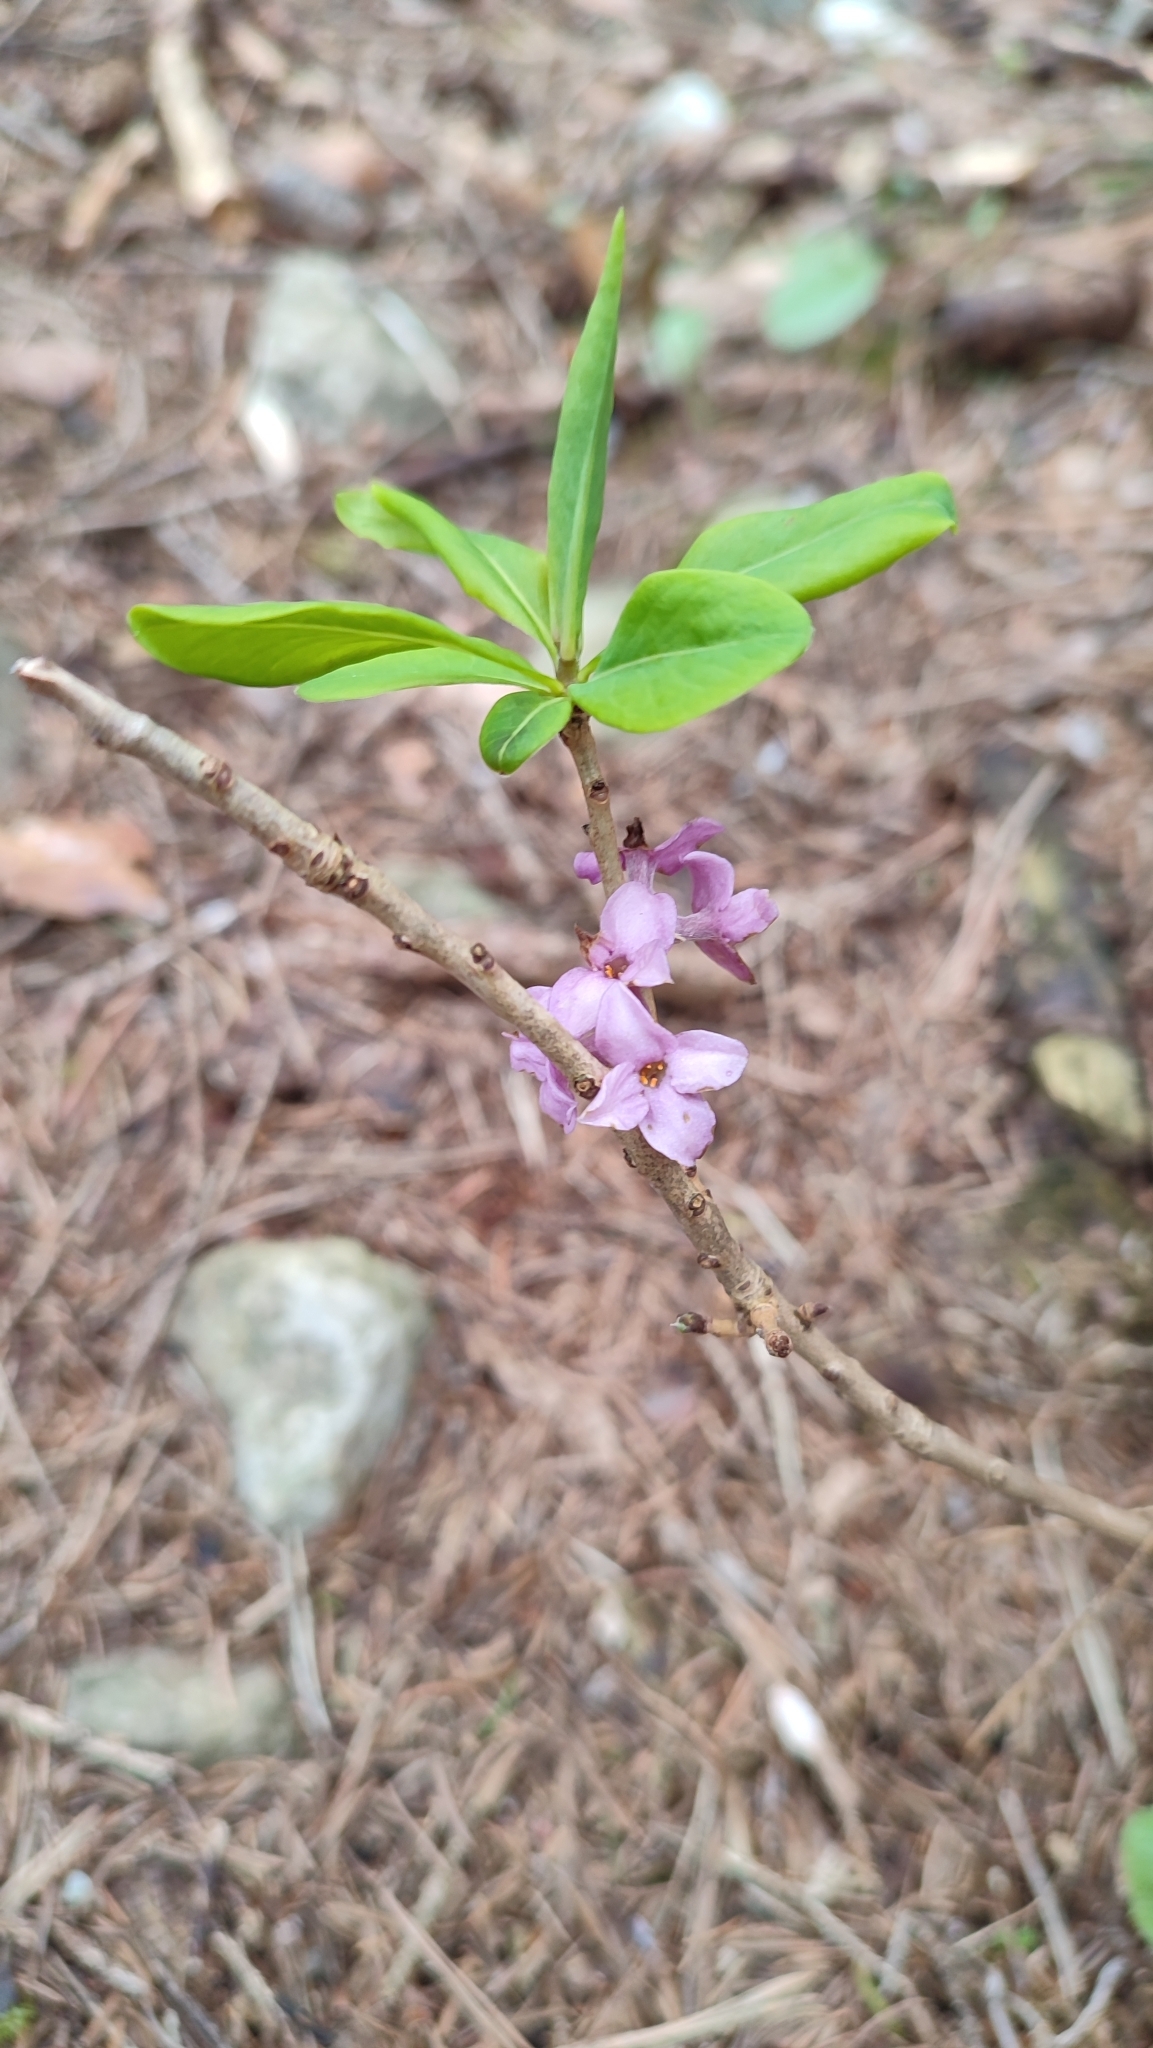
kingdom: Plantae
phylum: Tracheophyta
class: Magnoliopsida
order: Malvales
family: Thymelaeaceae
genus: Daphne
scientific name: Daphne mezereum
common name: Mezereon
